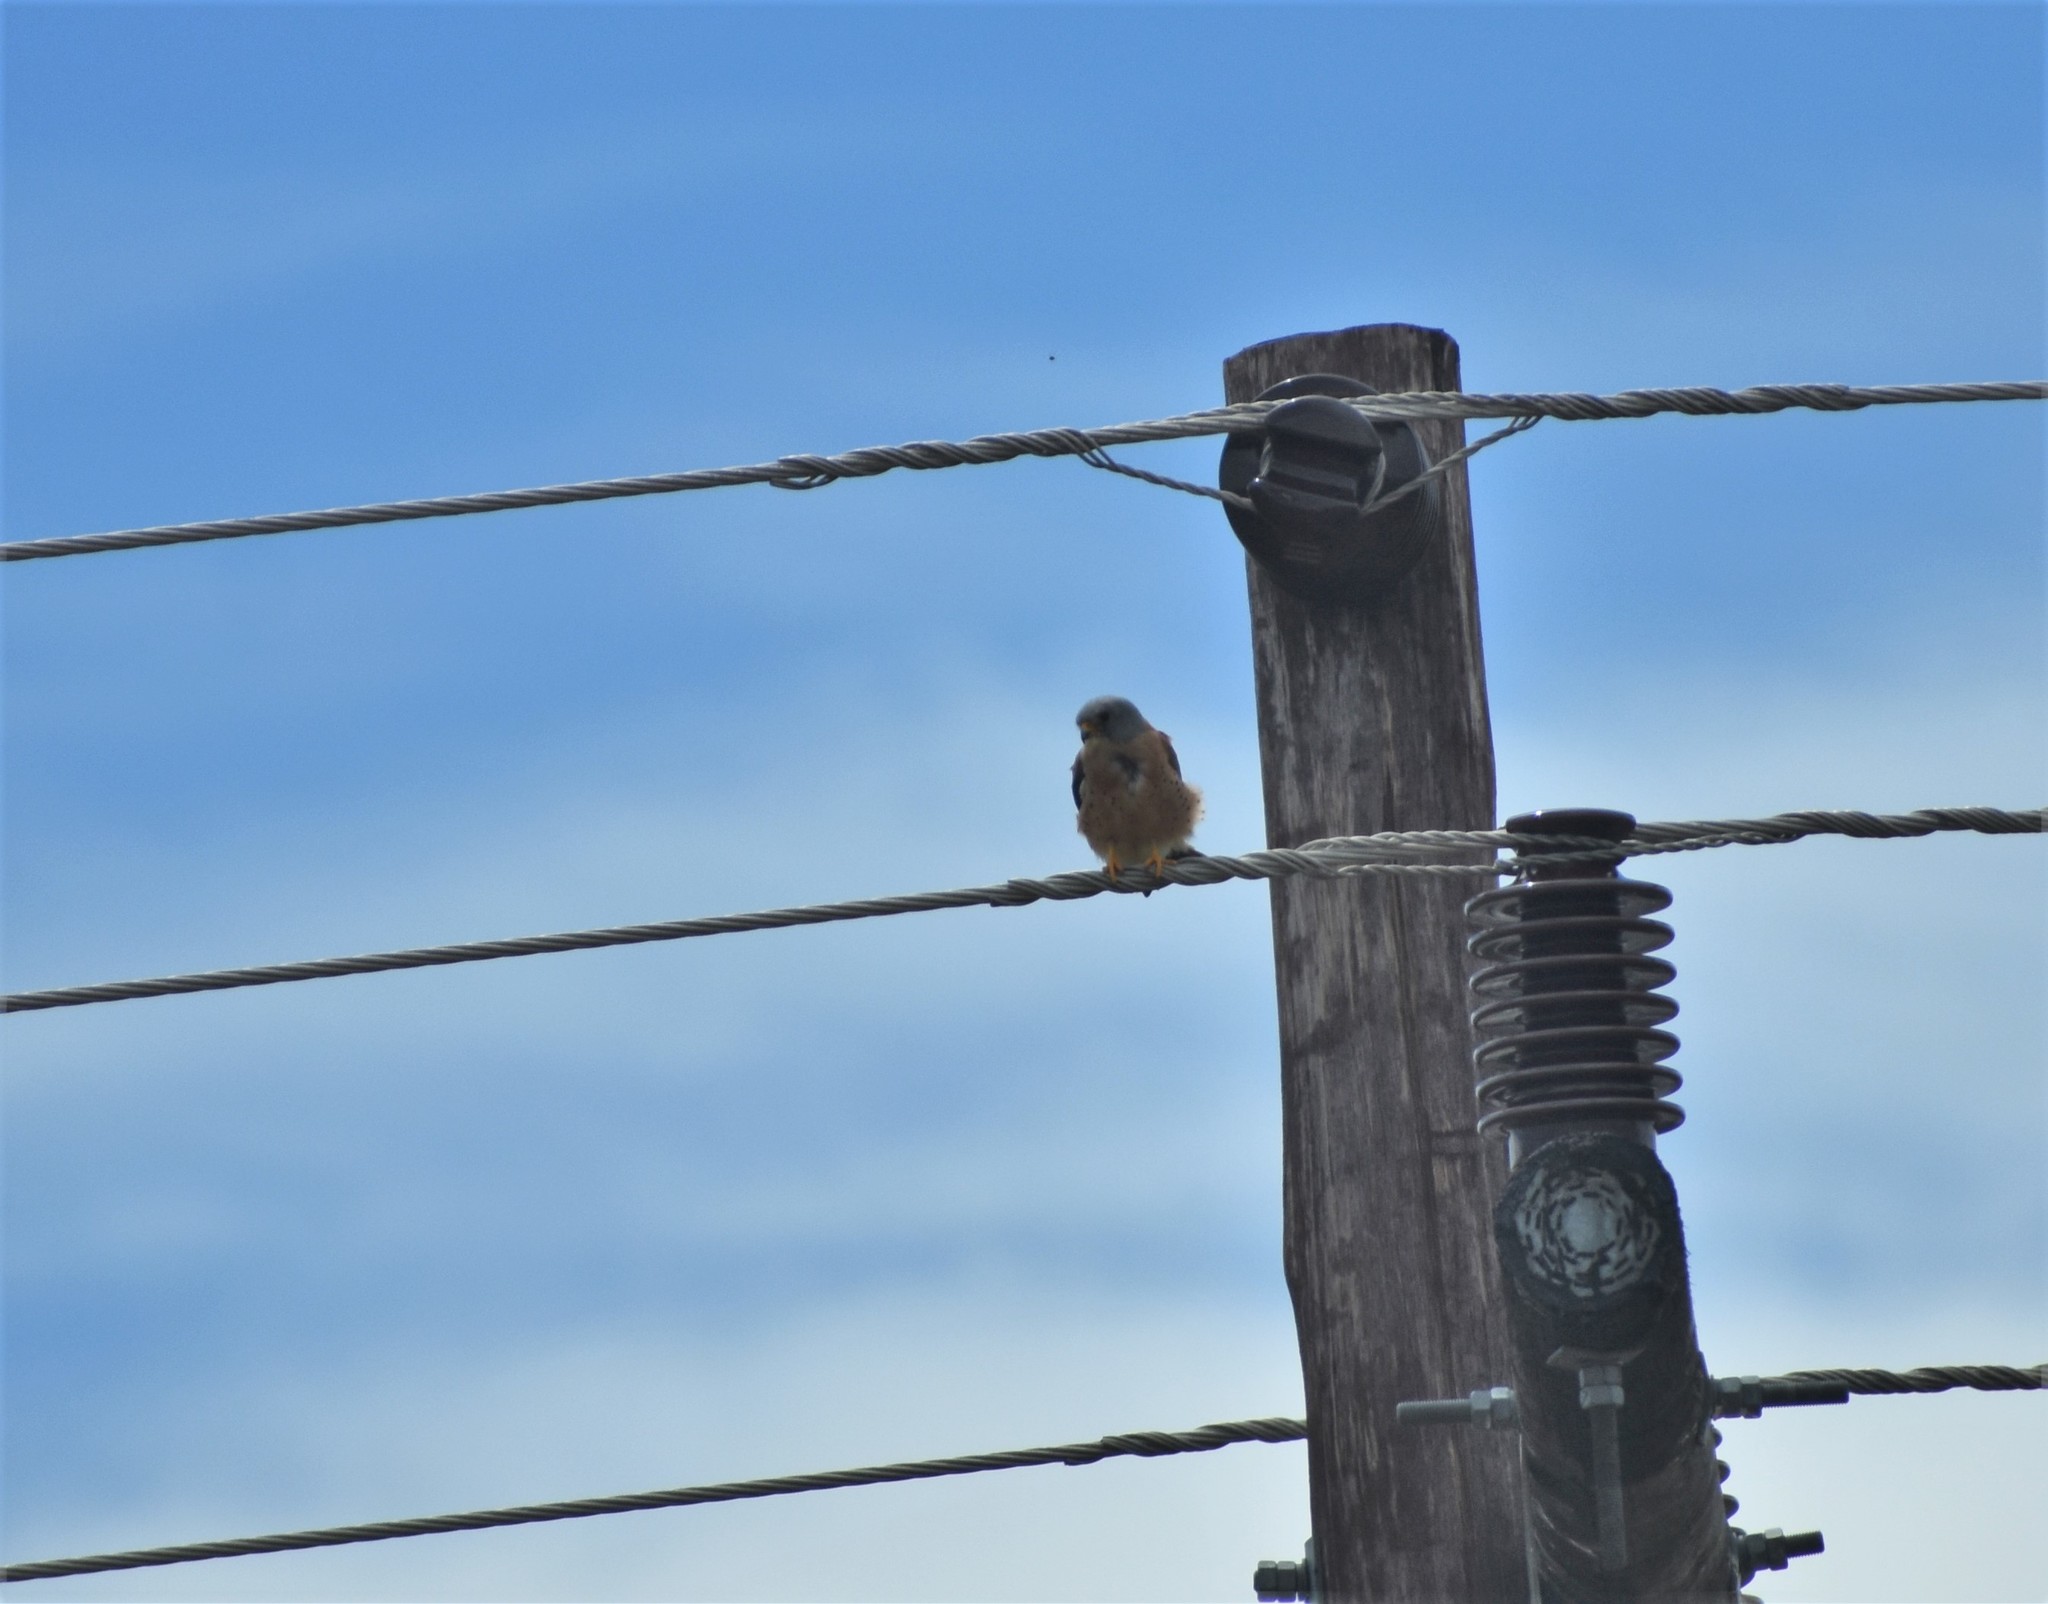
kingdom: Animalia
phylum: Chordata
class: Aves
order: Falconiformes
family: Falconidae
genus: Falco
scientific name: Falco naumanni
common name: Lesser kestrel
